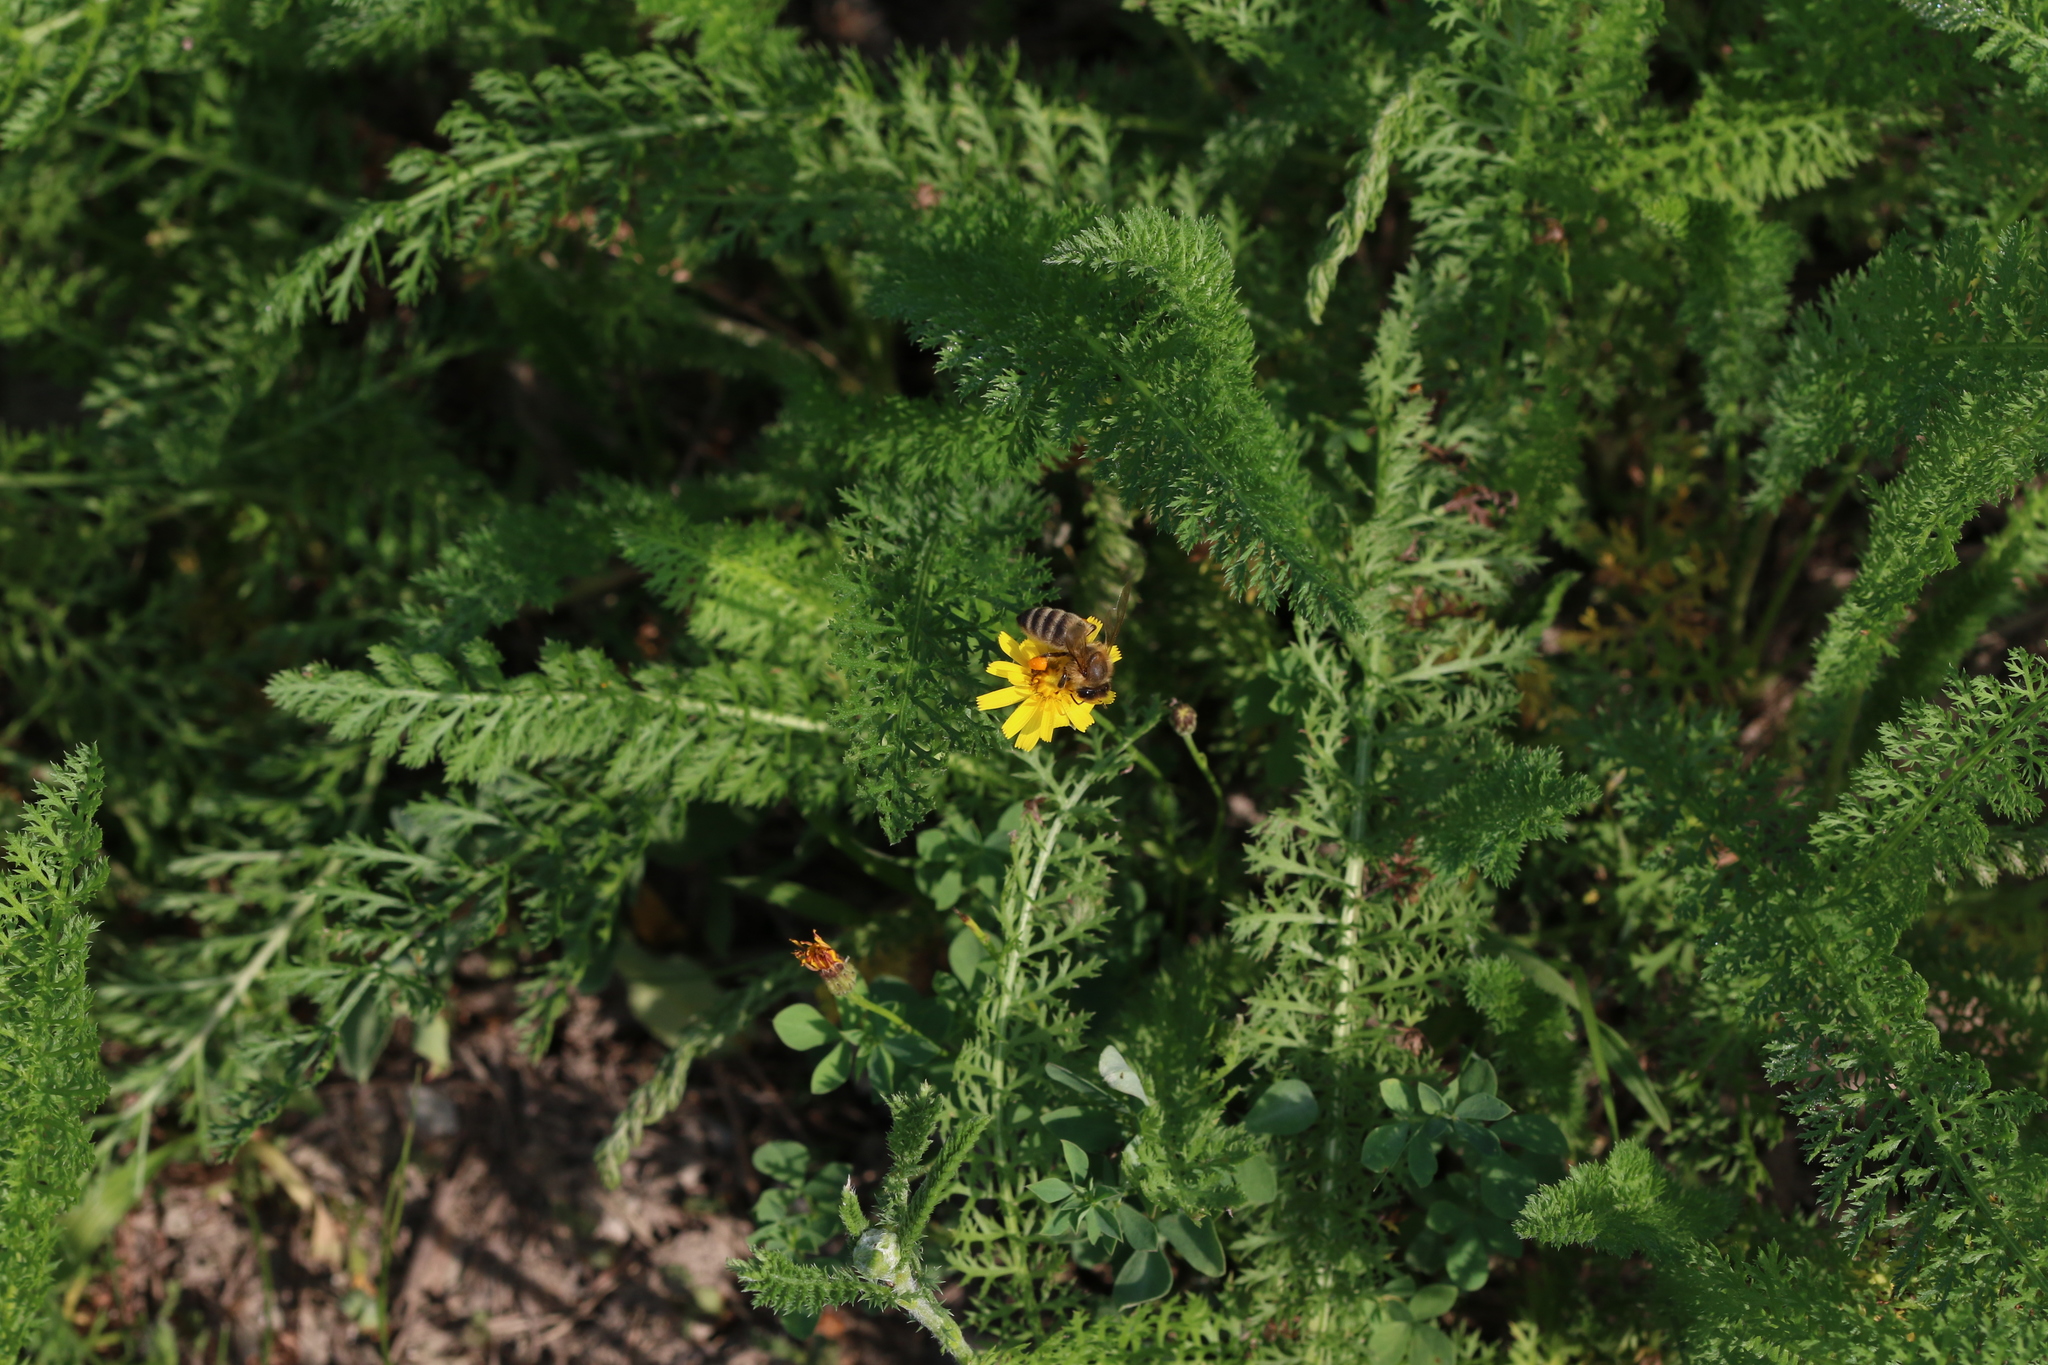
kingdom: Animalia
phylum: Arthropoda
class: Insecta
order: Hymenoptera
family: Apidae
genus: Apis
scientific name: Apis mellifera
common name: Honey bee
